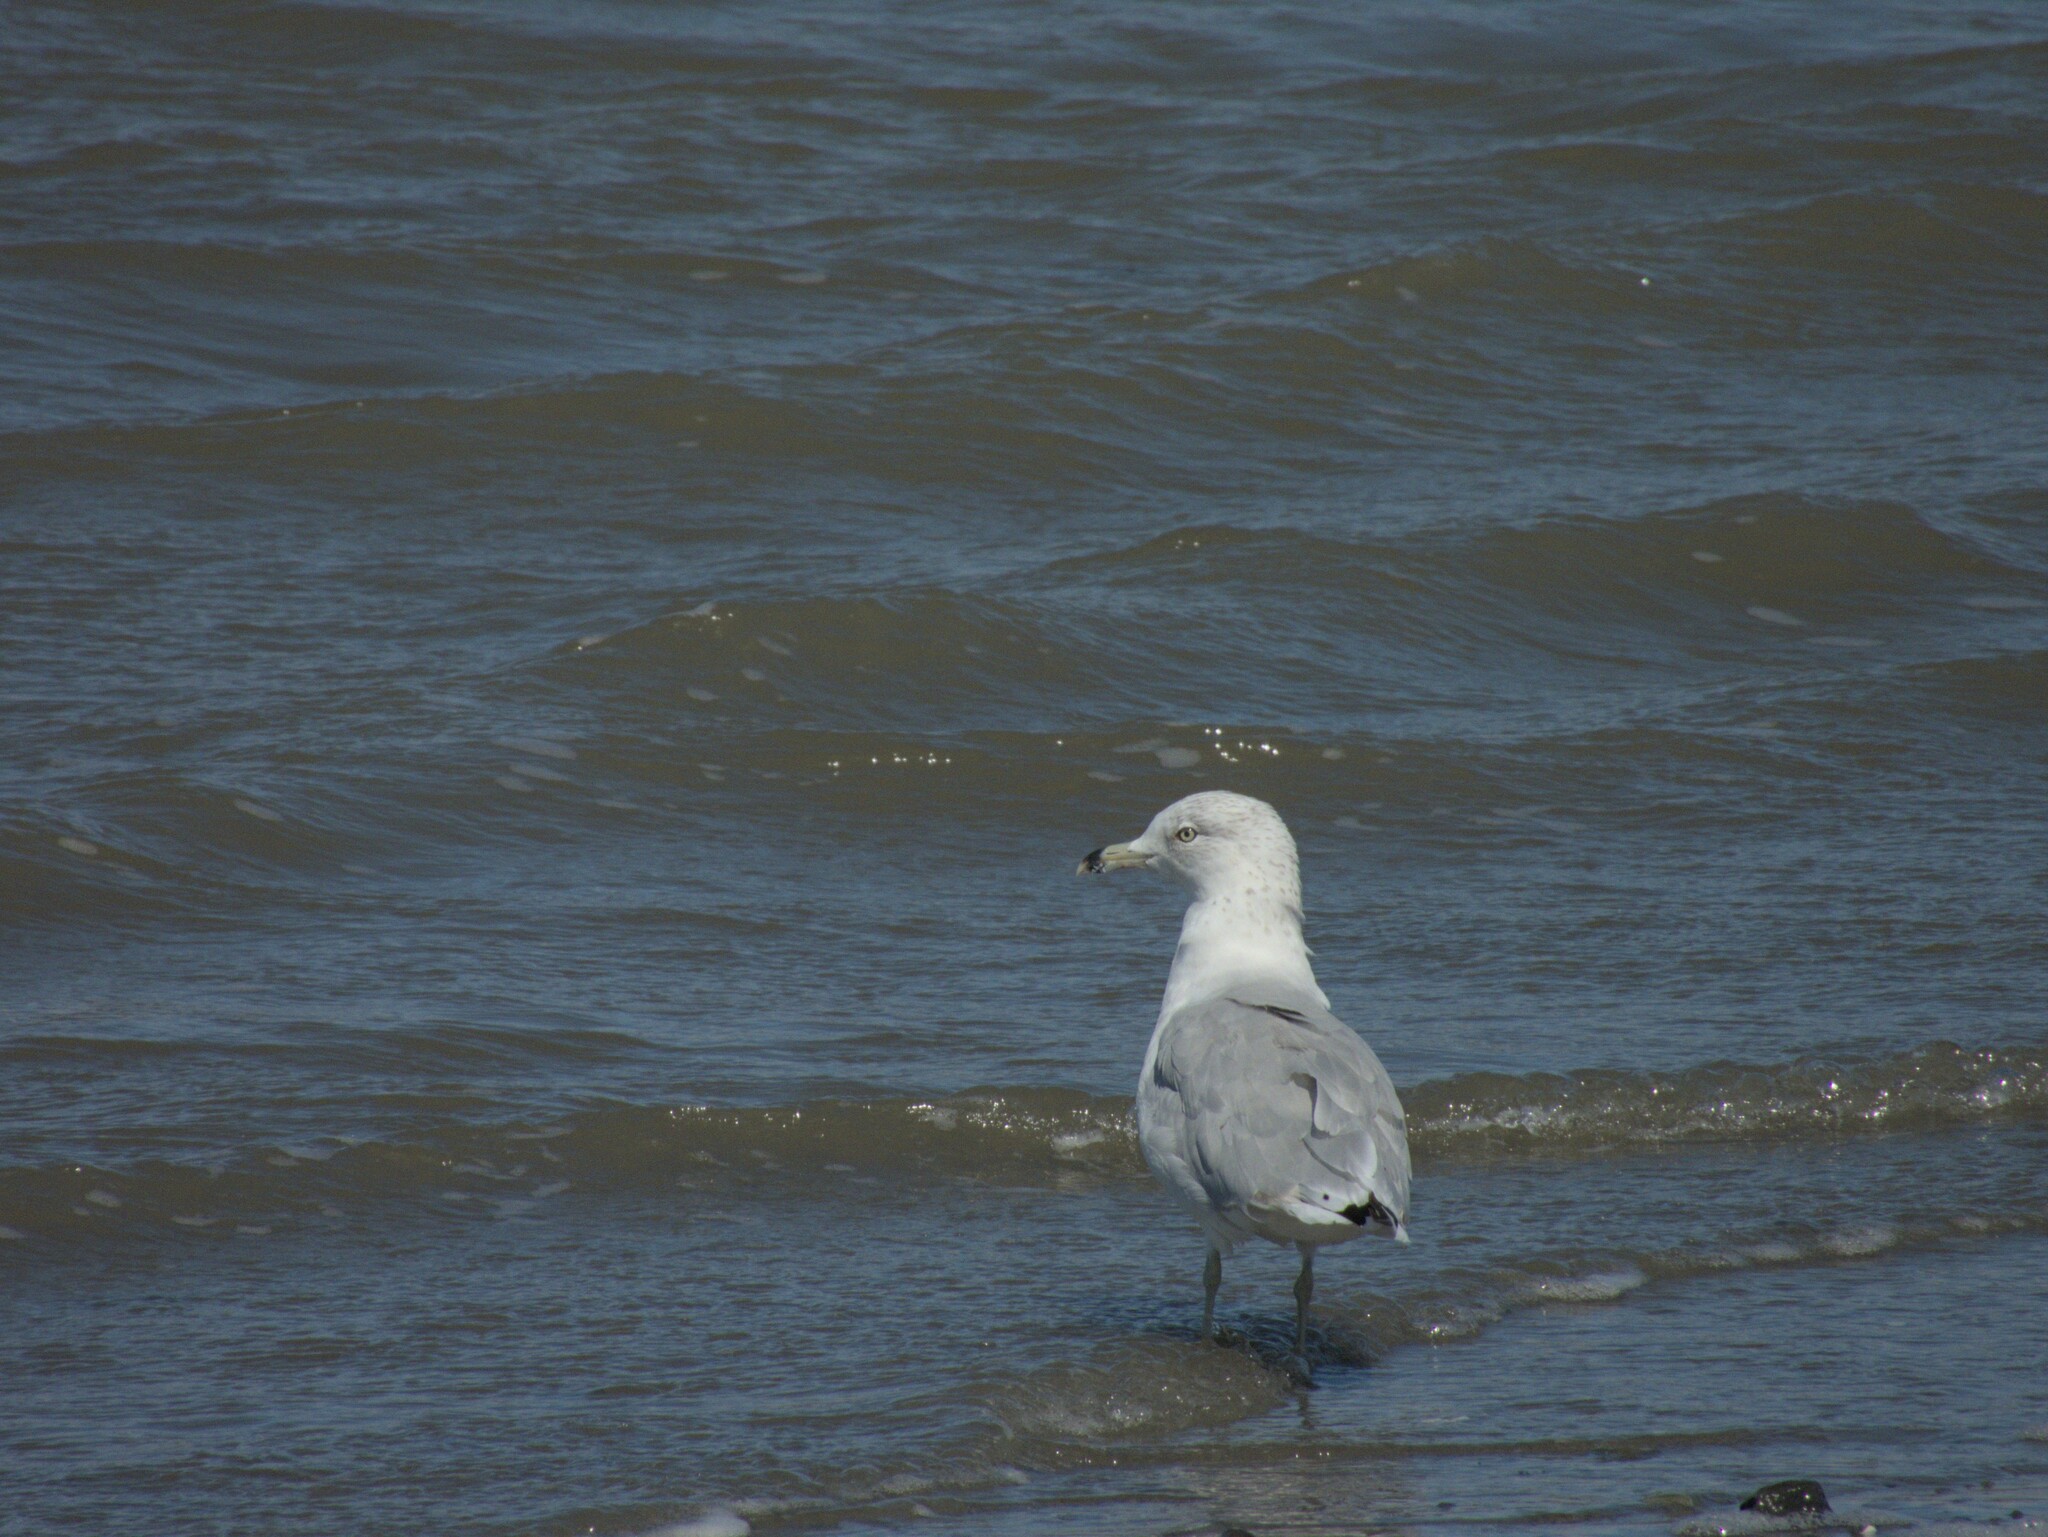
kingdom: Animalia
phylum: Chordata
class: Aves
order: Charadriiformes
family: Laridae
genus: Larus
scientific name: Larus delawarensis
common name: Ring-billed gull
